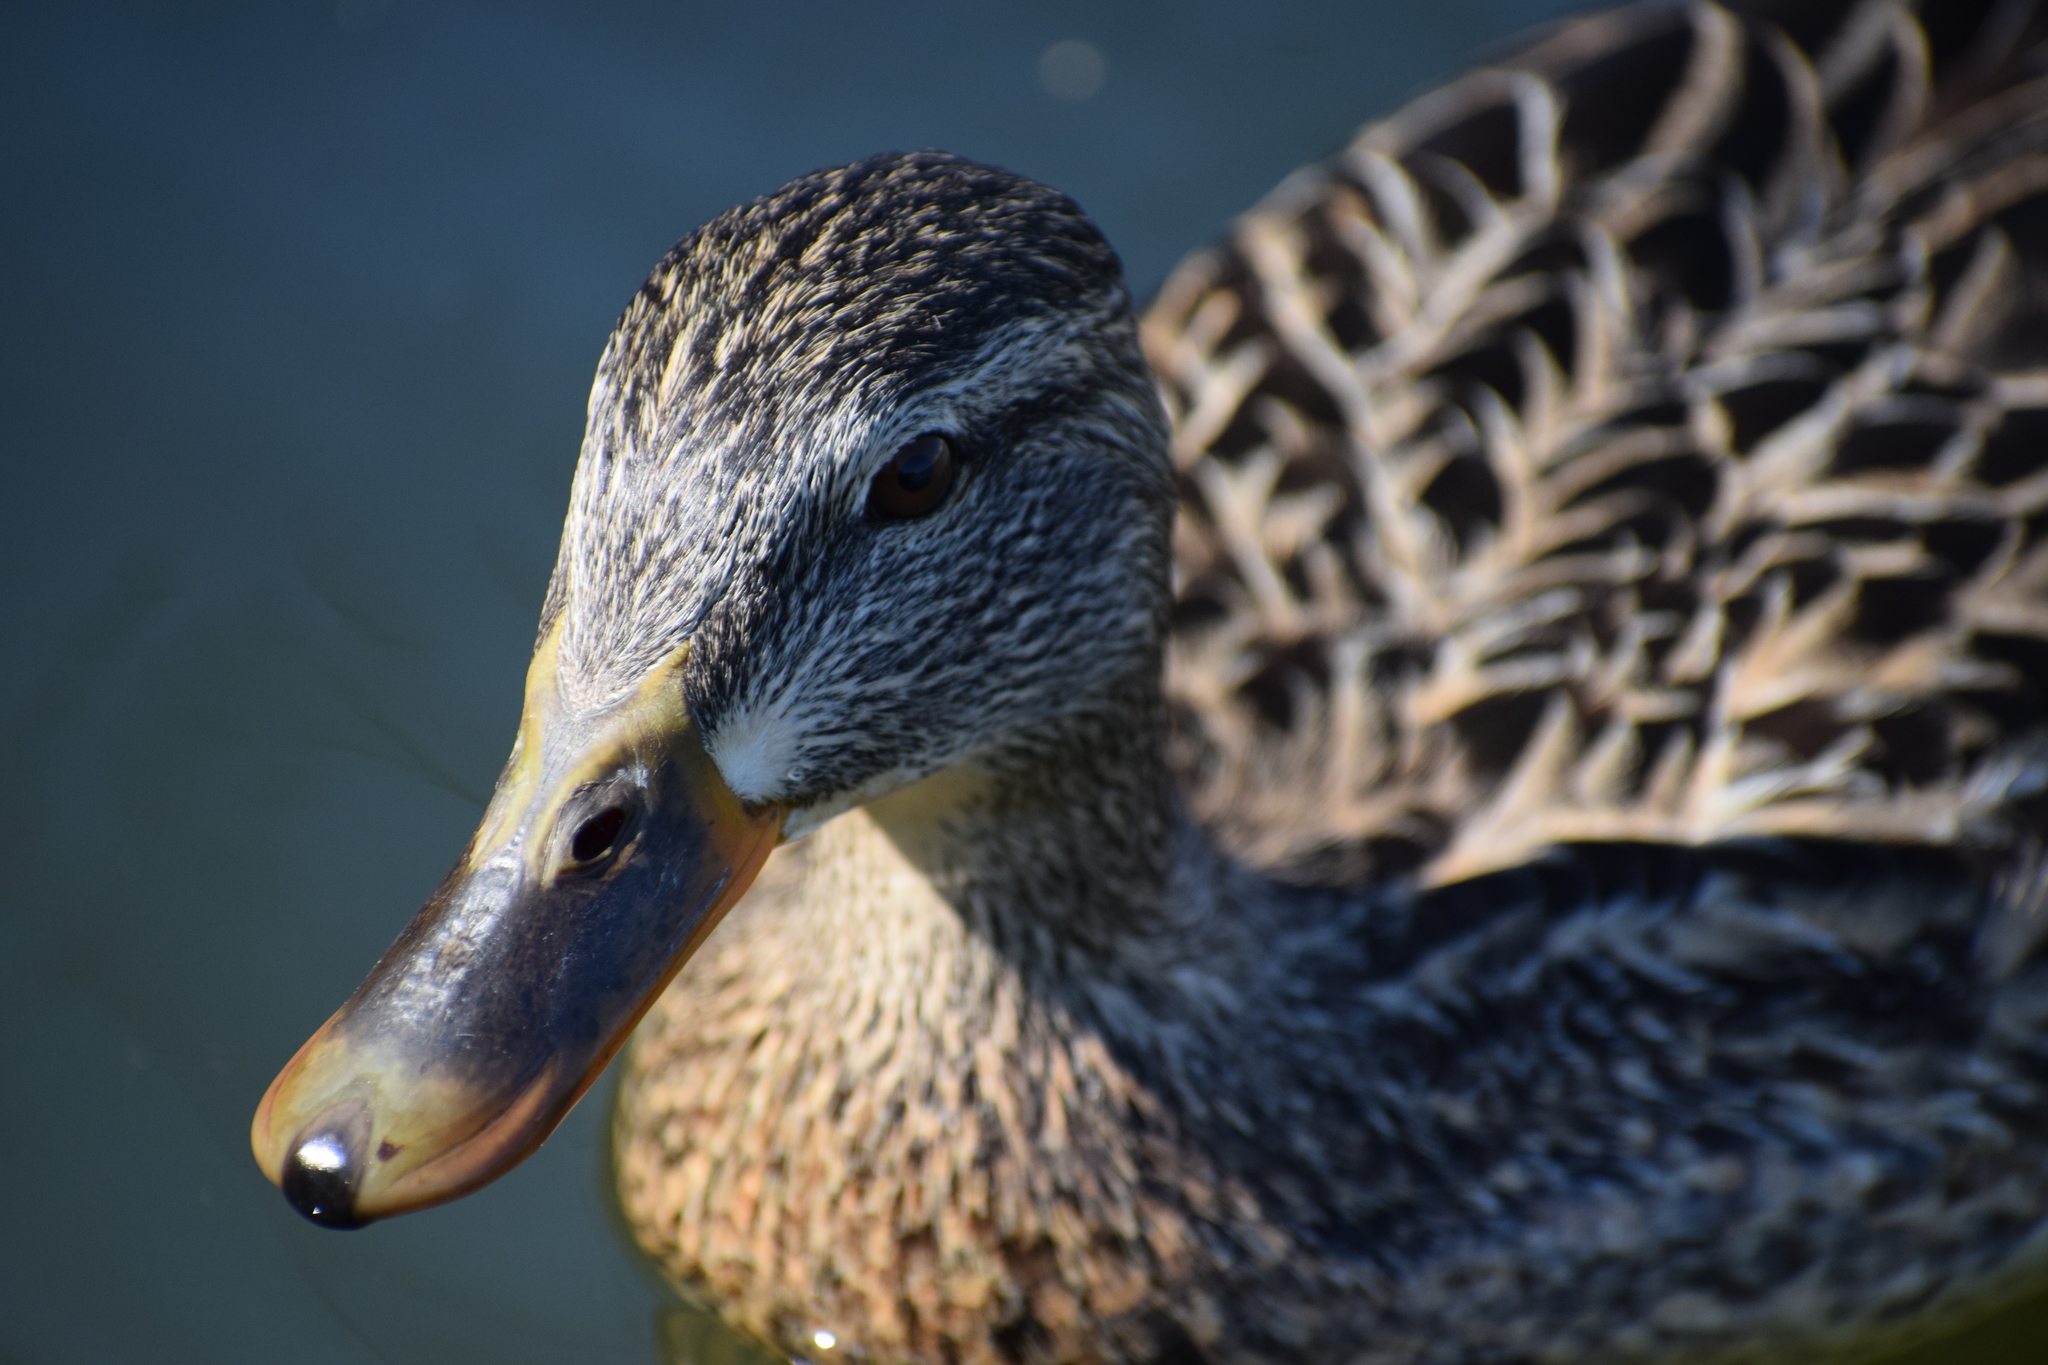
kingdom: Animalia
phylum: Chordata
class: Aves
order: Anseriformes
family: Anatidae
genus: Anas
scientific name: Anas platyrhynchos
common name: Mallard
